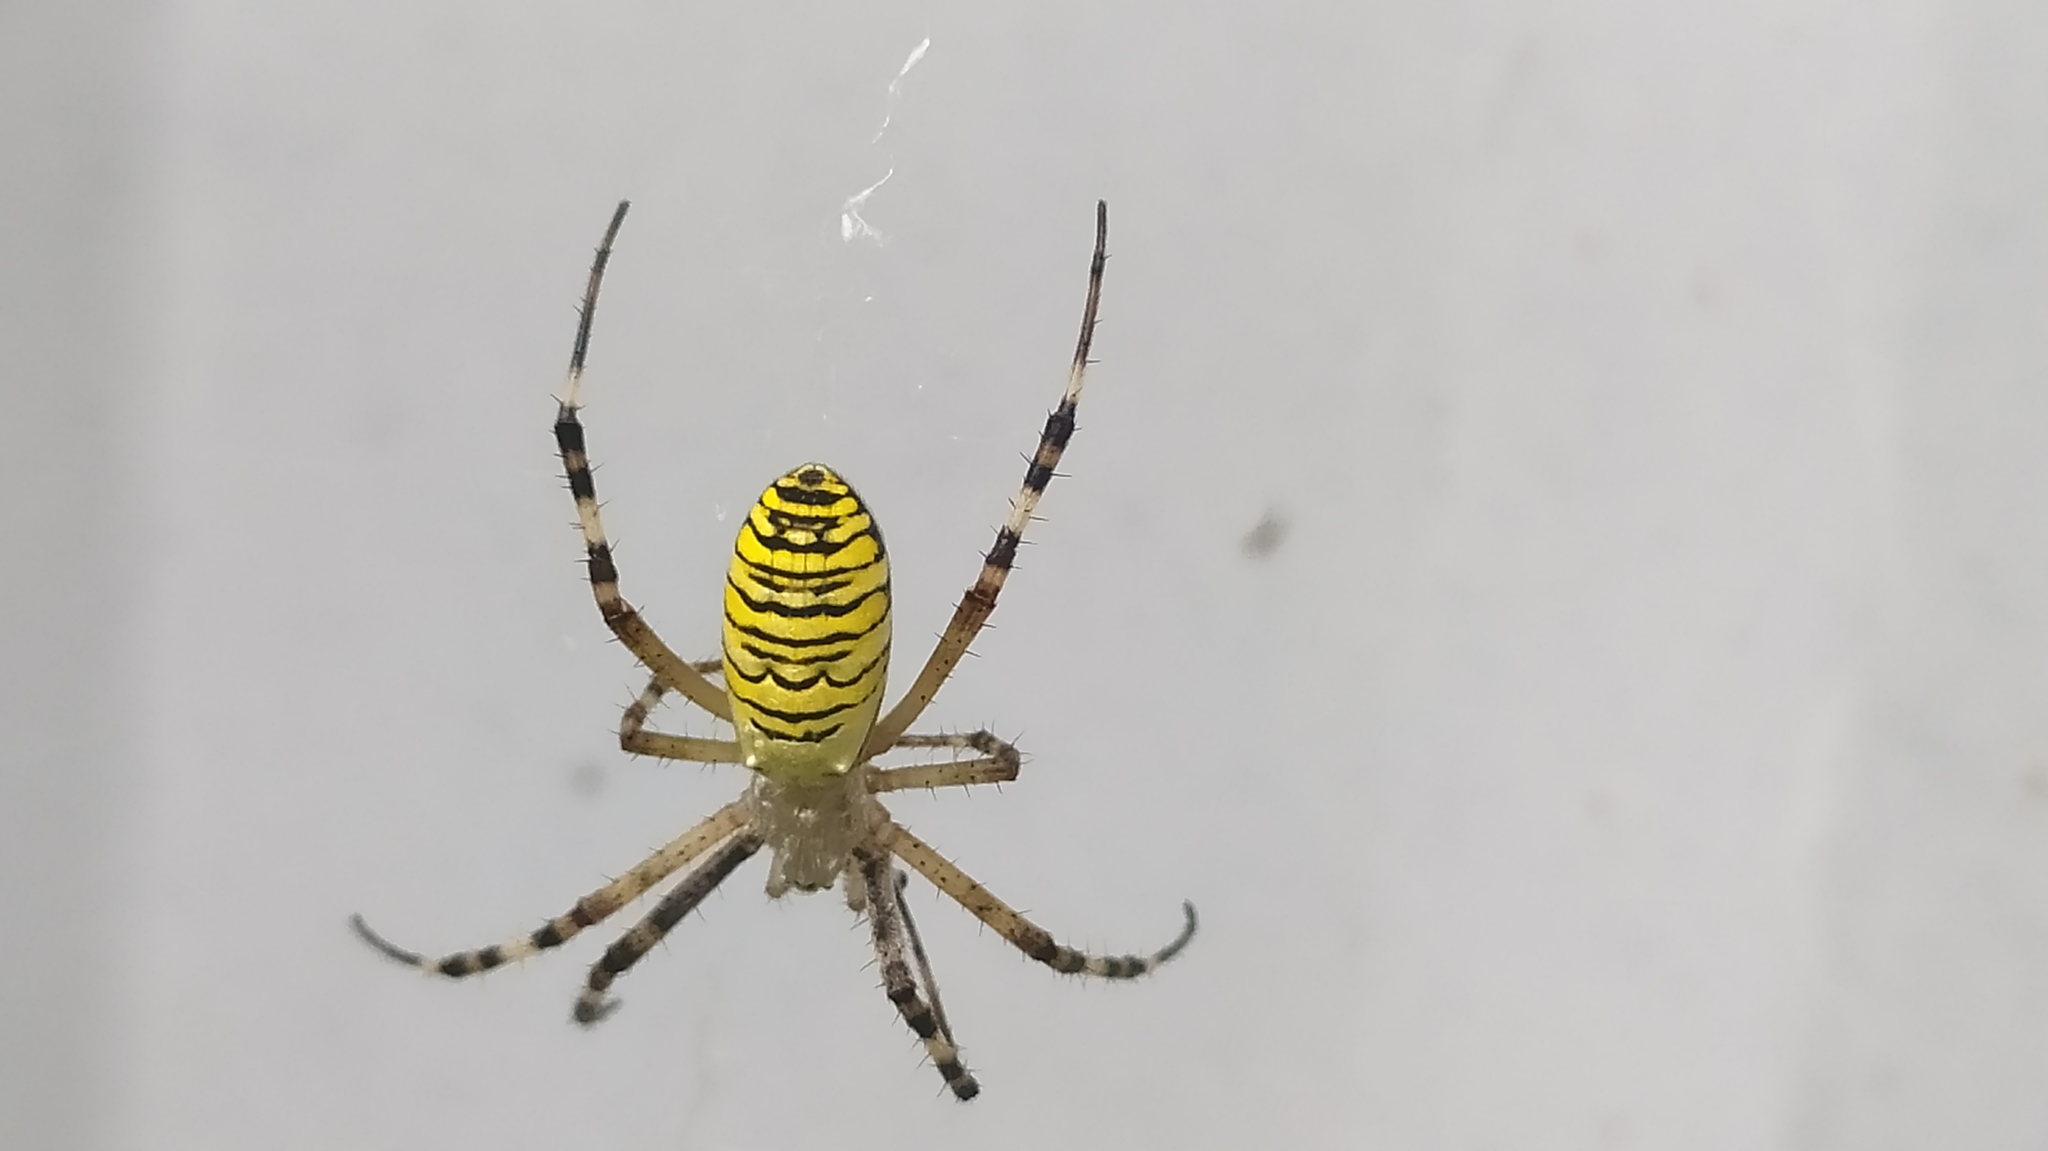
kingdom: Animalia
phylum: Arthropoda
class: Arachnida
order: Araneae
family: Araneidae
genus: Argiope
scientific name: Argiope bruennichi
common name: Wasp spider
